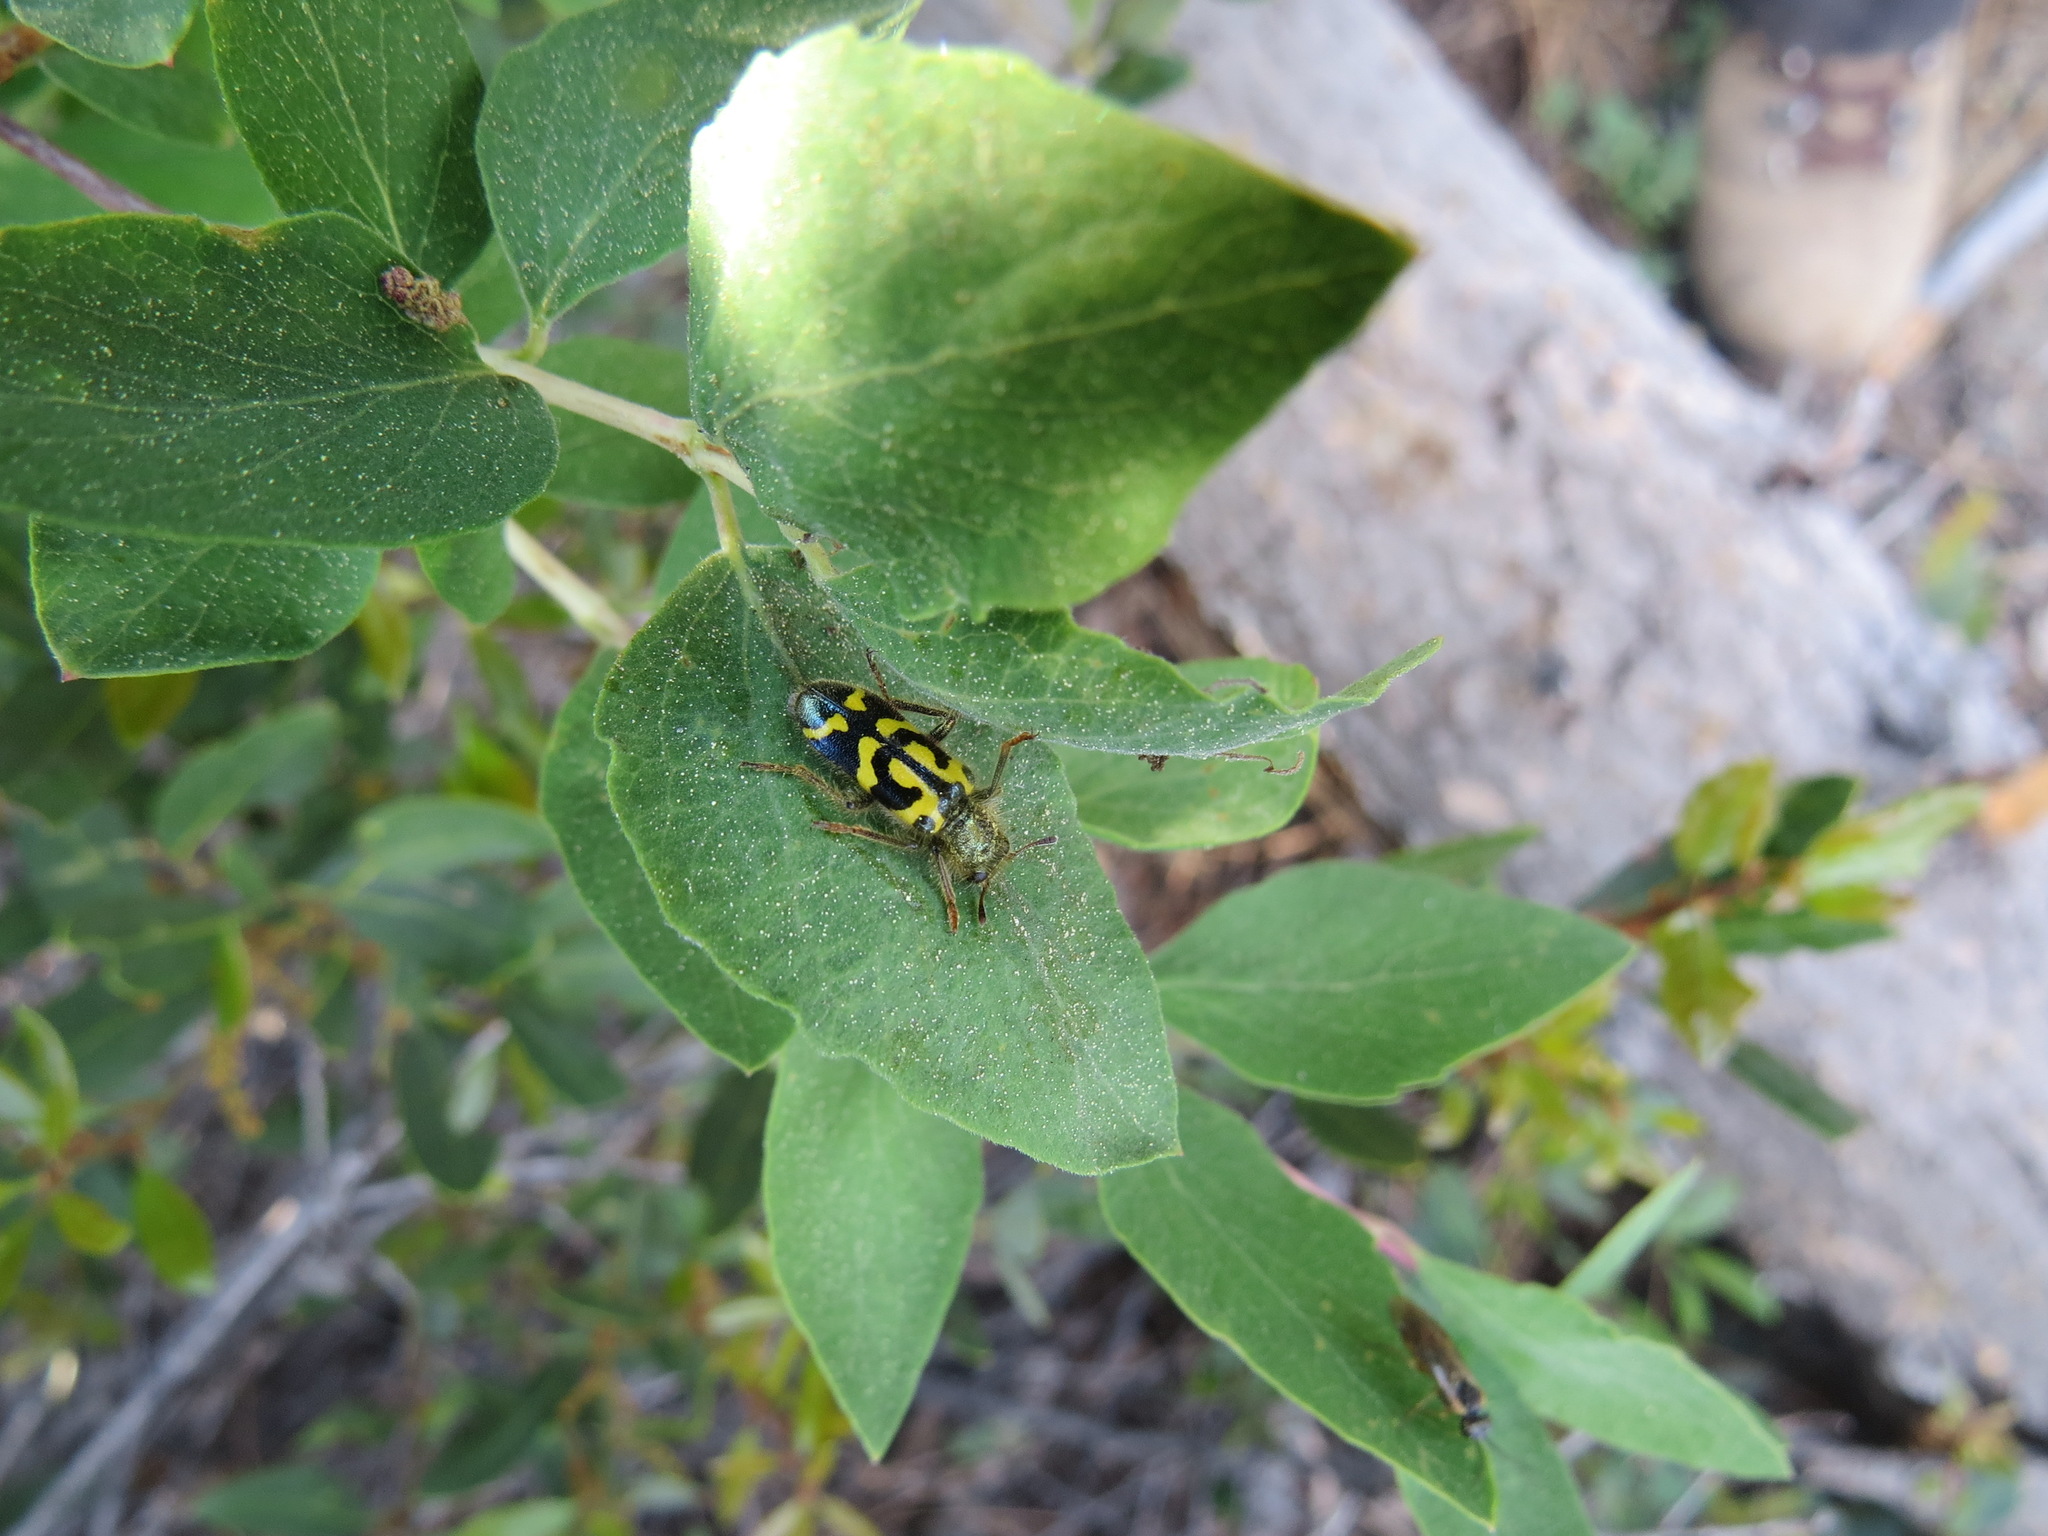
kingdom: Animalia
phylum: Arthropoda
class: Insecta
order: Coleoptera
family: Cleridae
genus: Trichodes
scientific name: Trichodes ornatus
